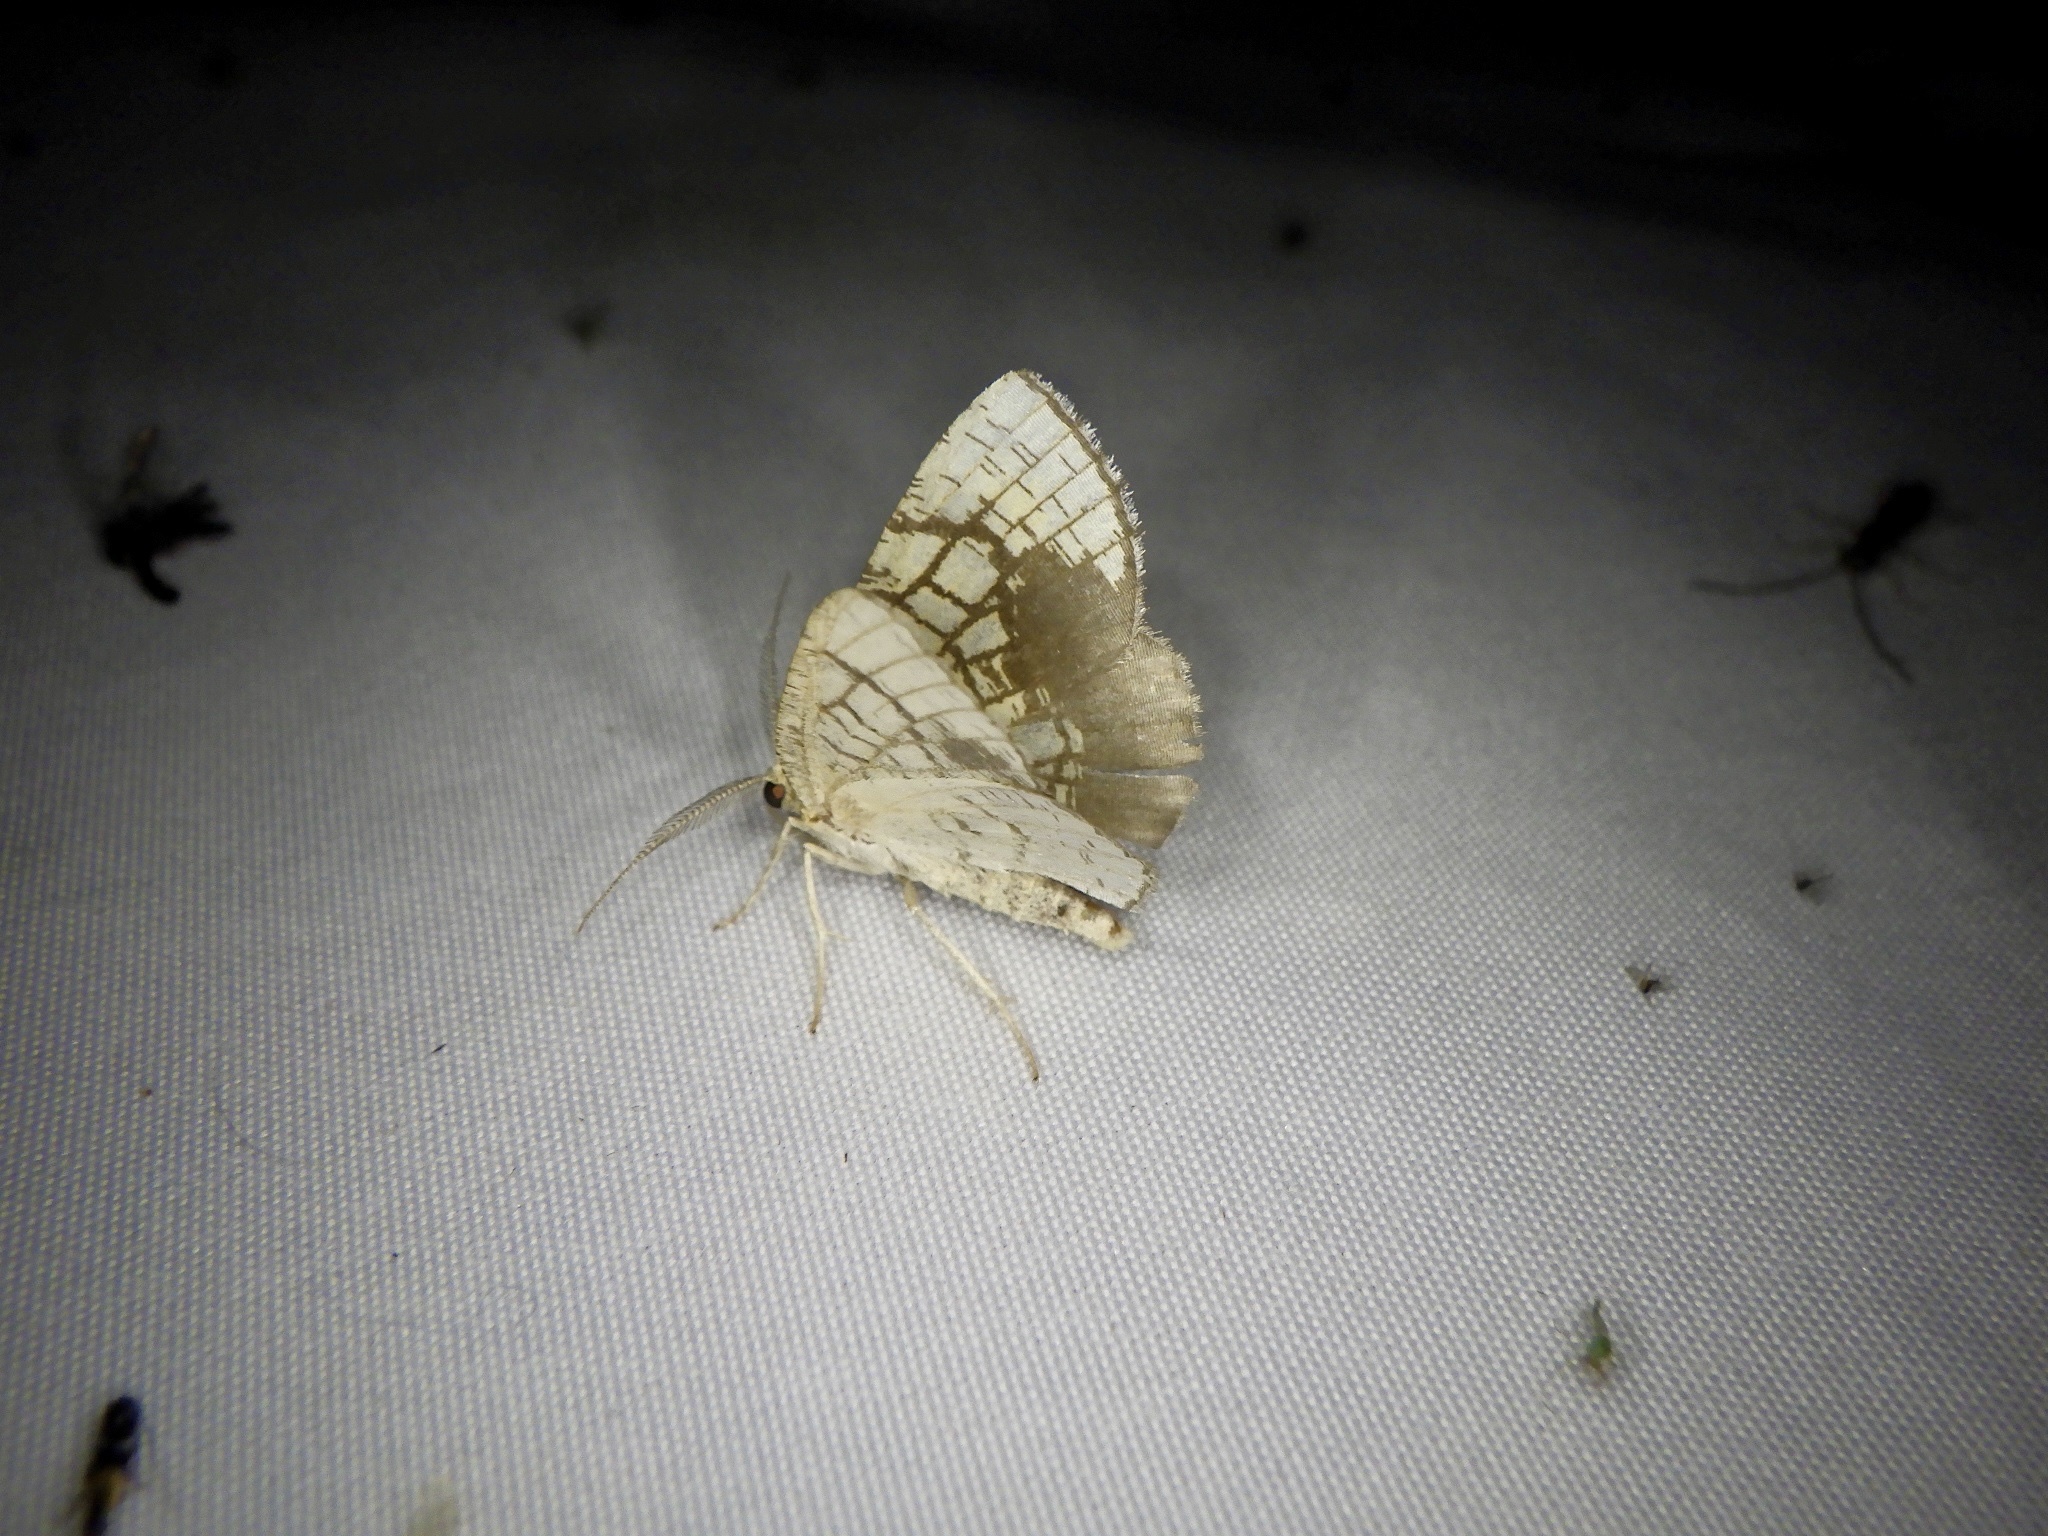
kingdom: Animalia
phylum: Arthropoda
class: Insecta
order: Lepidoptera
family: Geometridae
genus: Cabera
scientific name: Cabera griseolimbata
